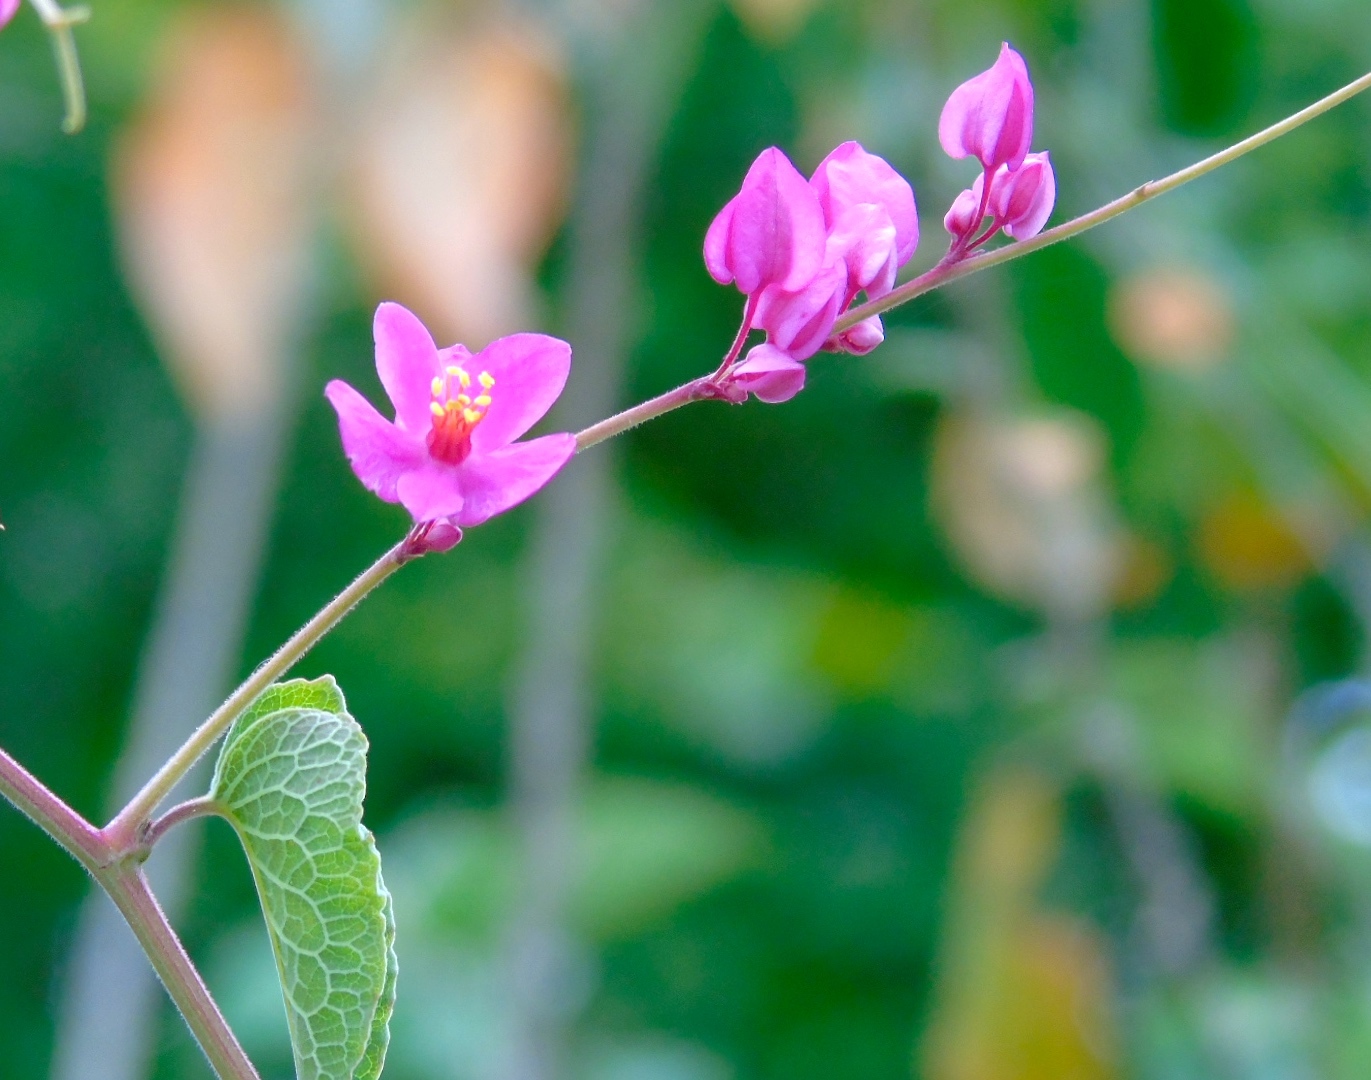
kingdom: Plantae
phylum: Tracheophyta
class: Magnoliopsida
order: Caryophyllales
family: Polygonaceae
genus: Antigonon
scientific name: Antigonon leptopus
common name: Coral vine
